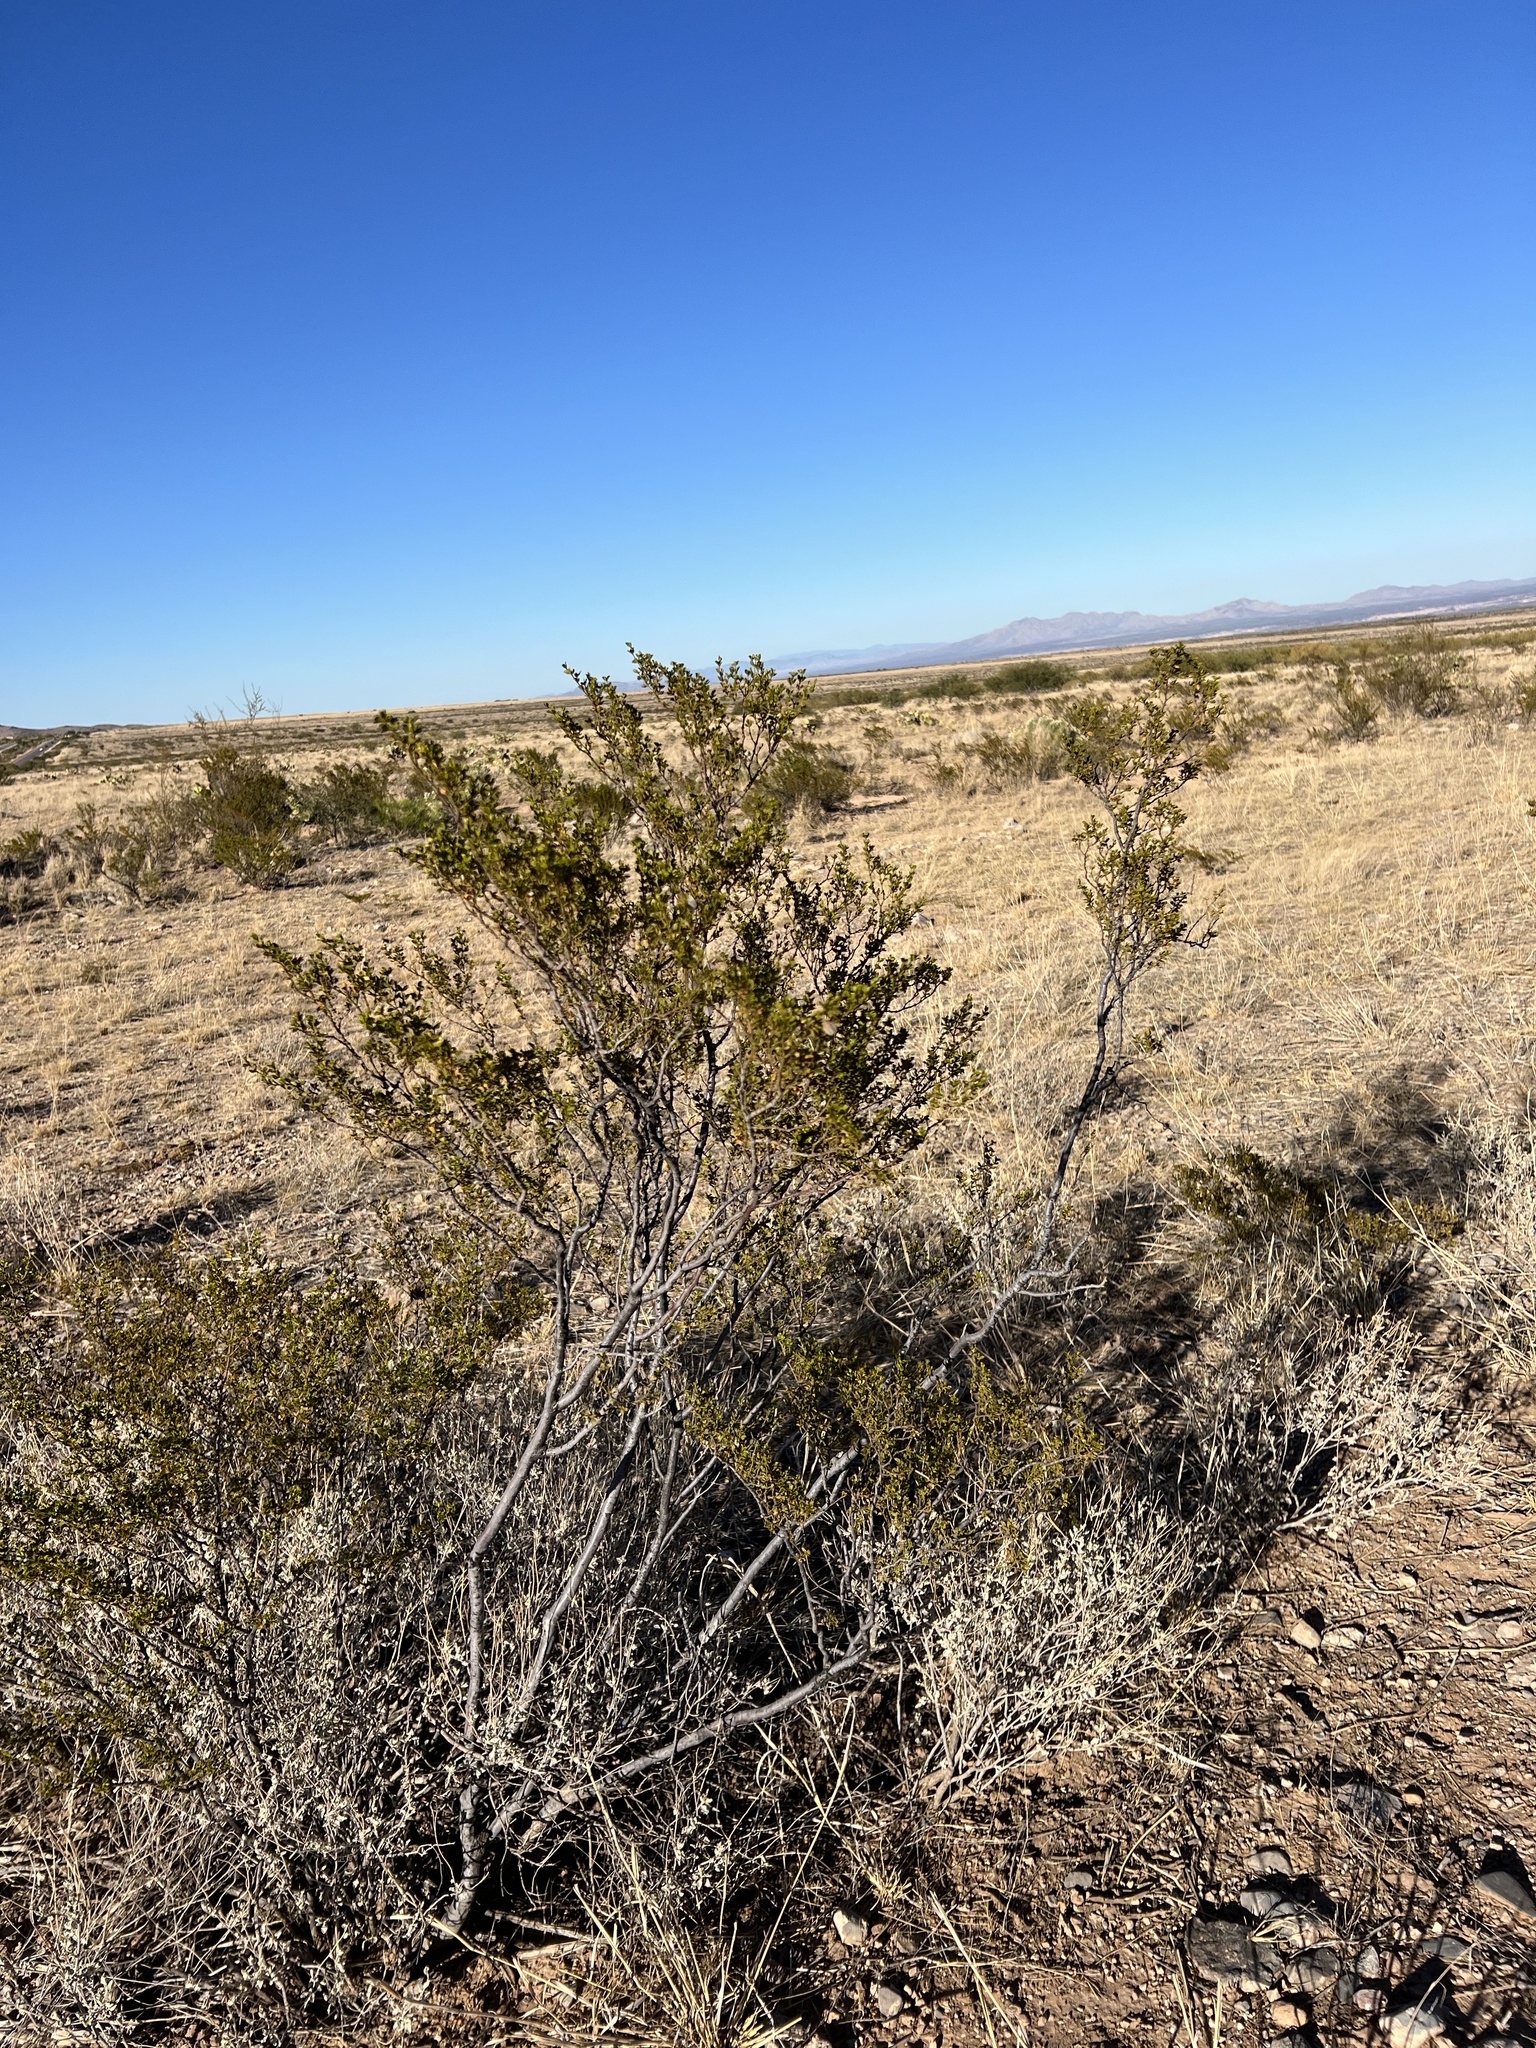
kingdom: Plantae
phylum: Tracheophyta
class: Magnoliopsida
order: Zygophyllales
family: Zygophyllaceae
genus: Larrea
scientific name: Larrea tridentata
